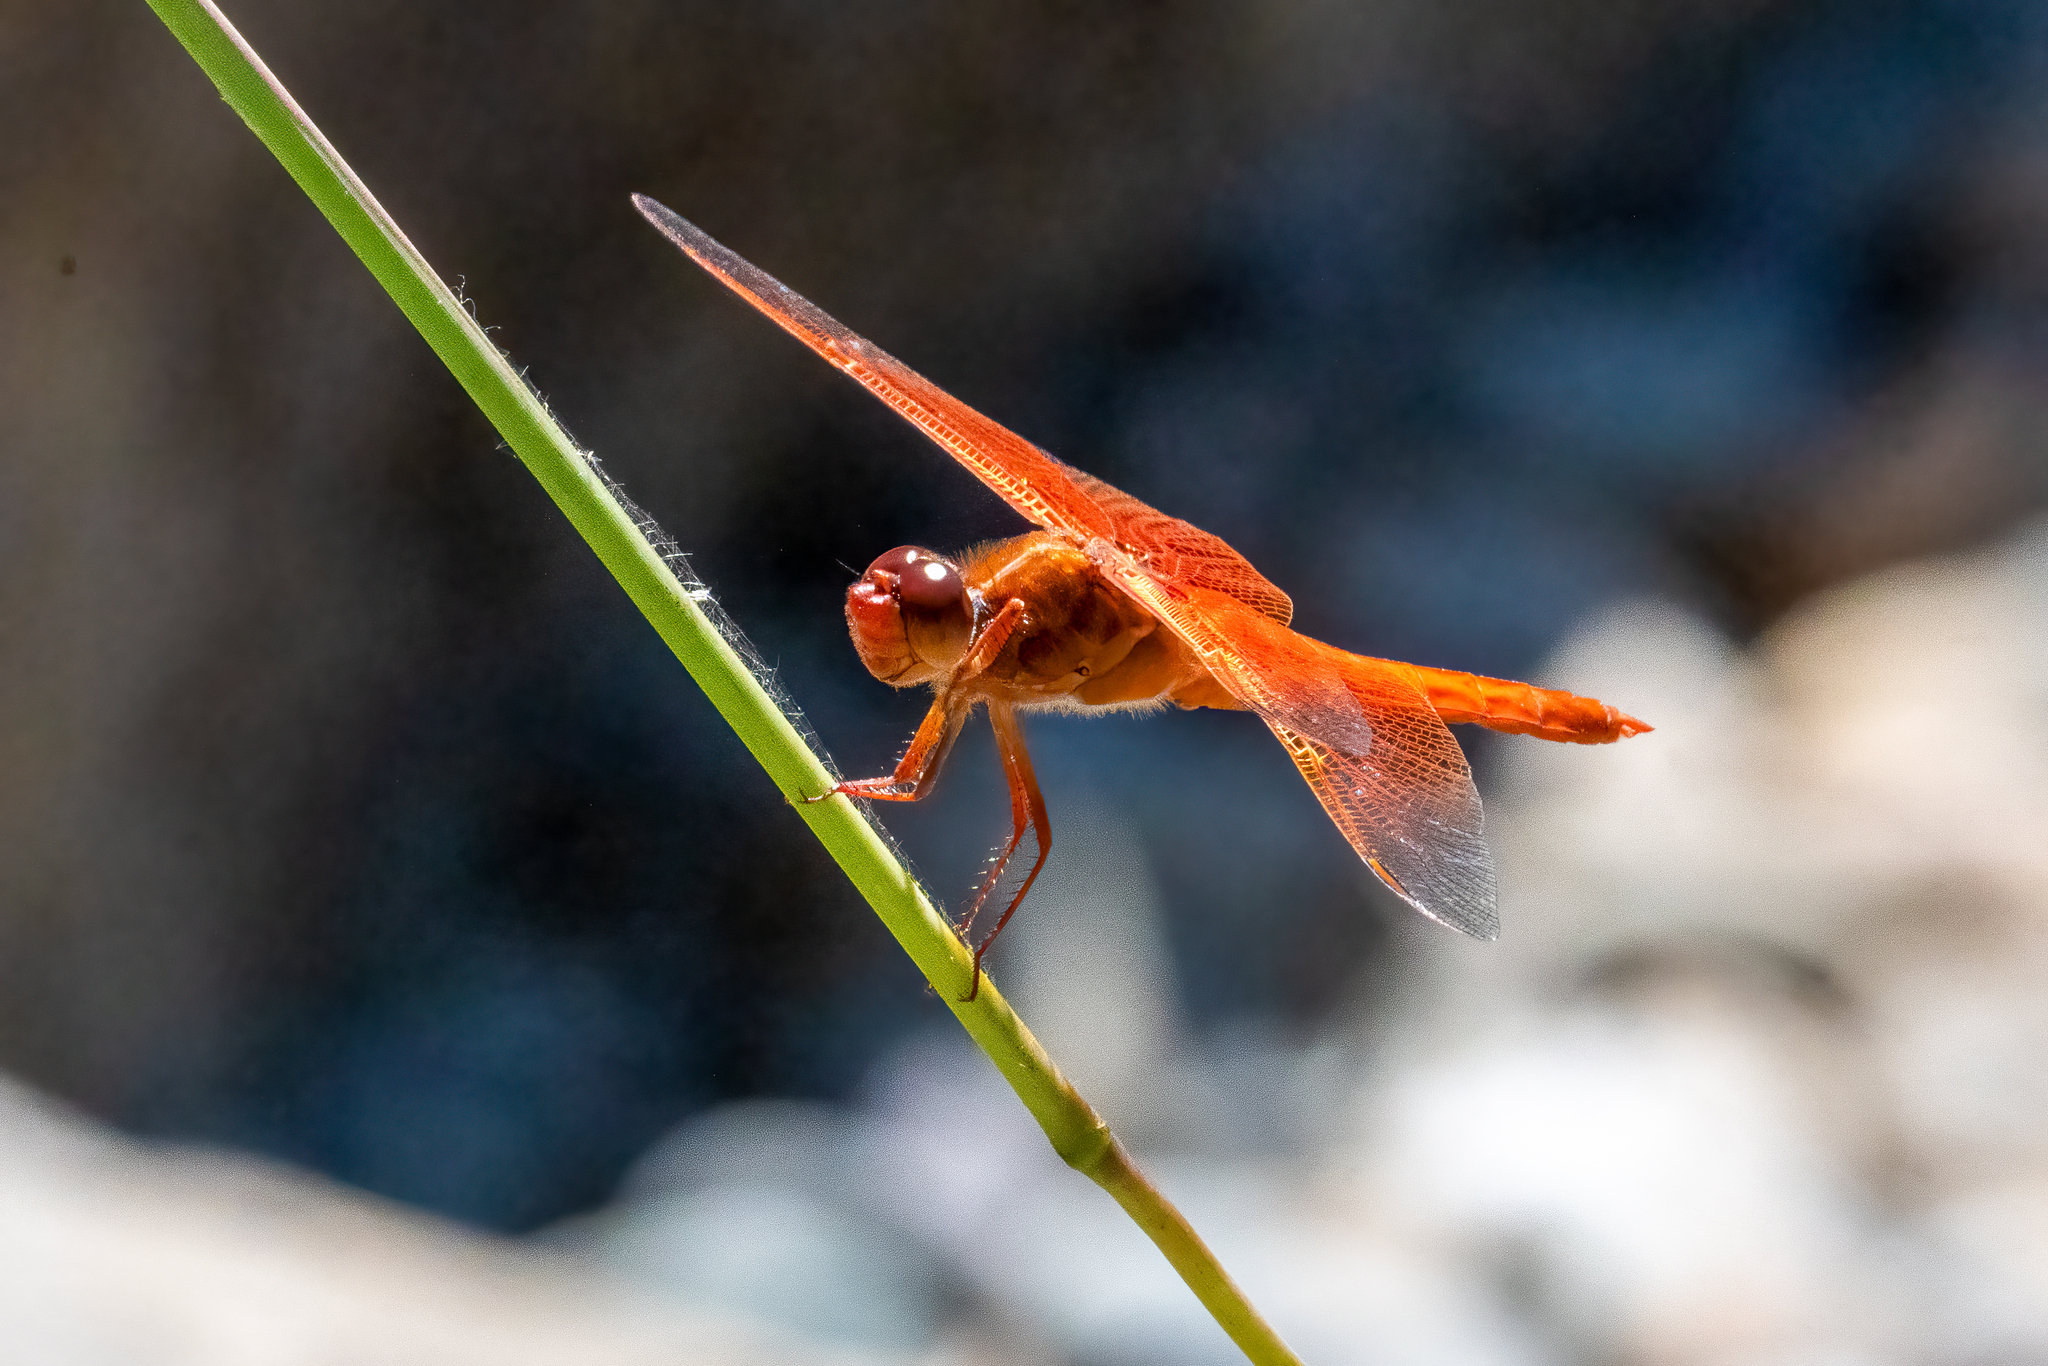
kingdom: Animalia
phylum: Arthropoda
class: Insecta
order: Odonata
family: Libellulidae
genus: Libellula
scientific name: Libellula saturata
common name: Flame skimmer
